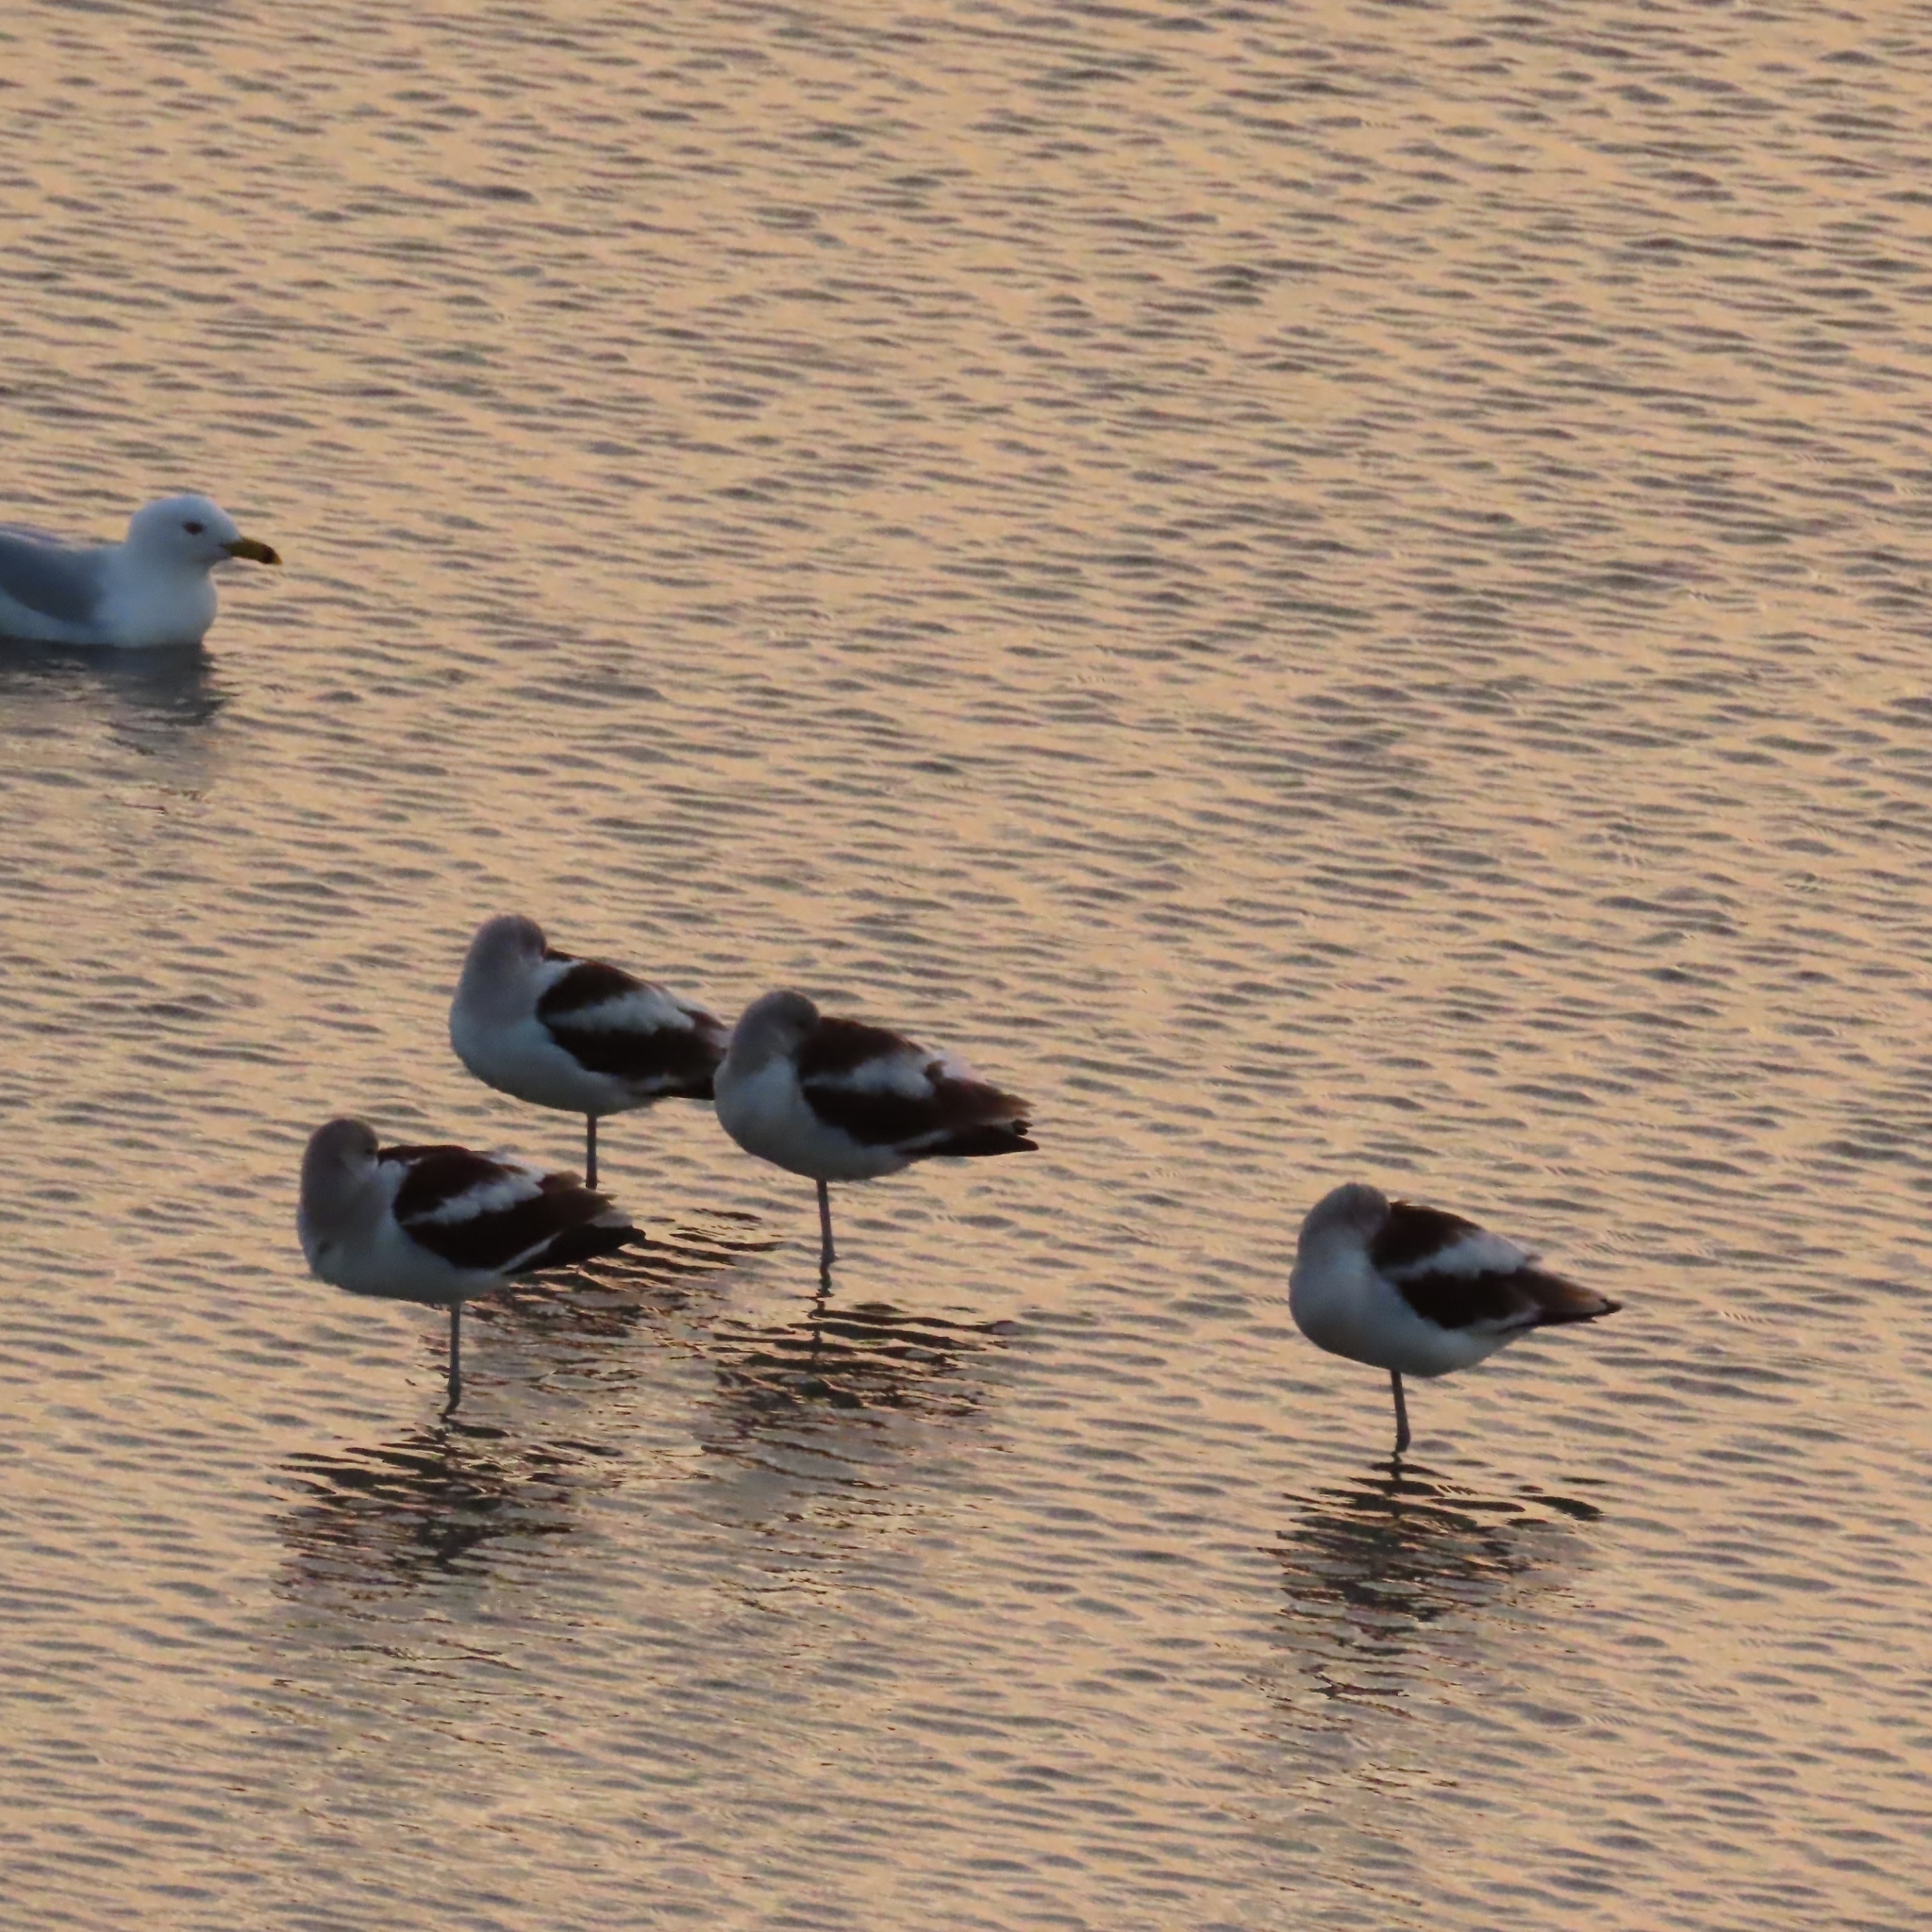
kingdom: Animalia
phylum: Chordata
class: Aves
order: Charadriiformes
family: Recurvirostridae
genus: Recurvirostra
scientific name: Recurvirostra americana
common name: American avocet
